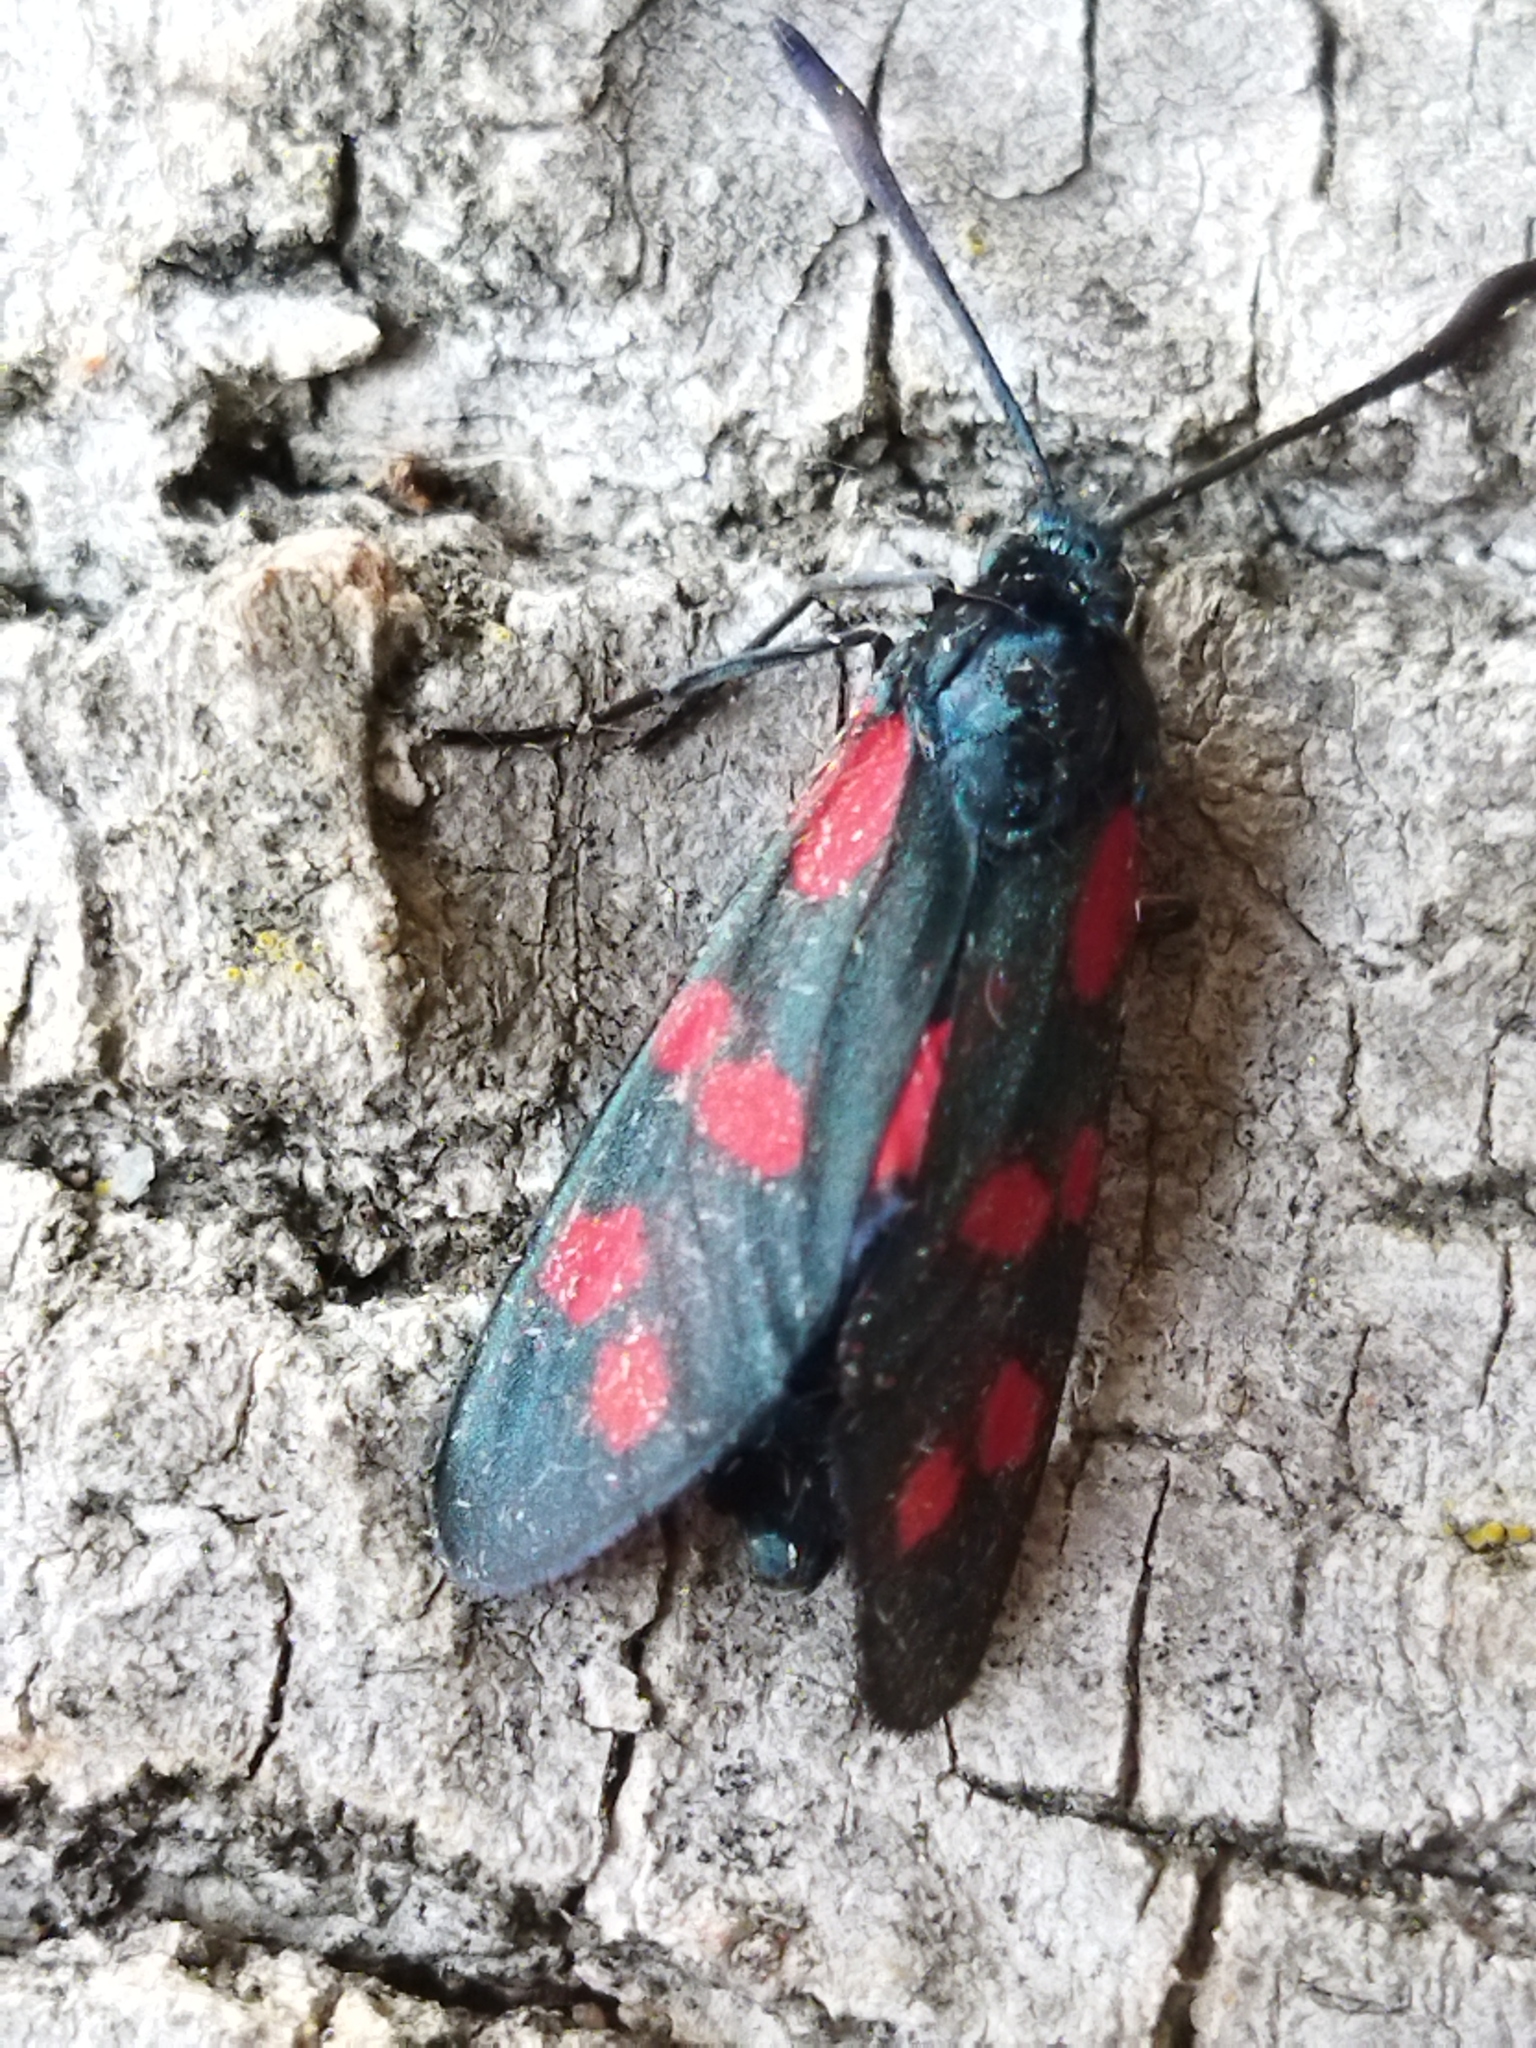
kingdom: Animalia
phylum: Arthropoda
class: Insecta
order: Lepidoptera
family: Zygaenidae
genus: Zygaena
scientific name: Zygaena filipendulae
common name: Six-spot burnet
